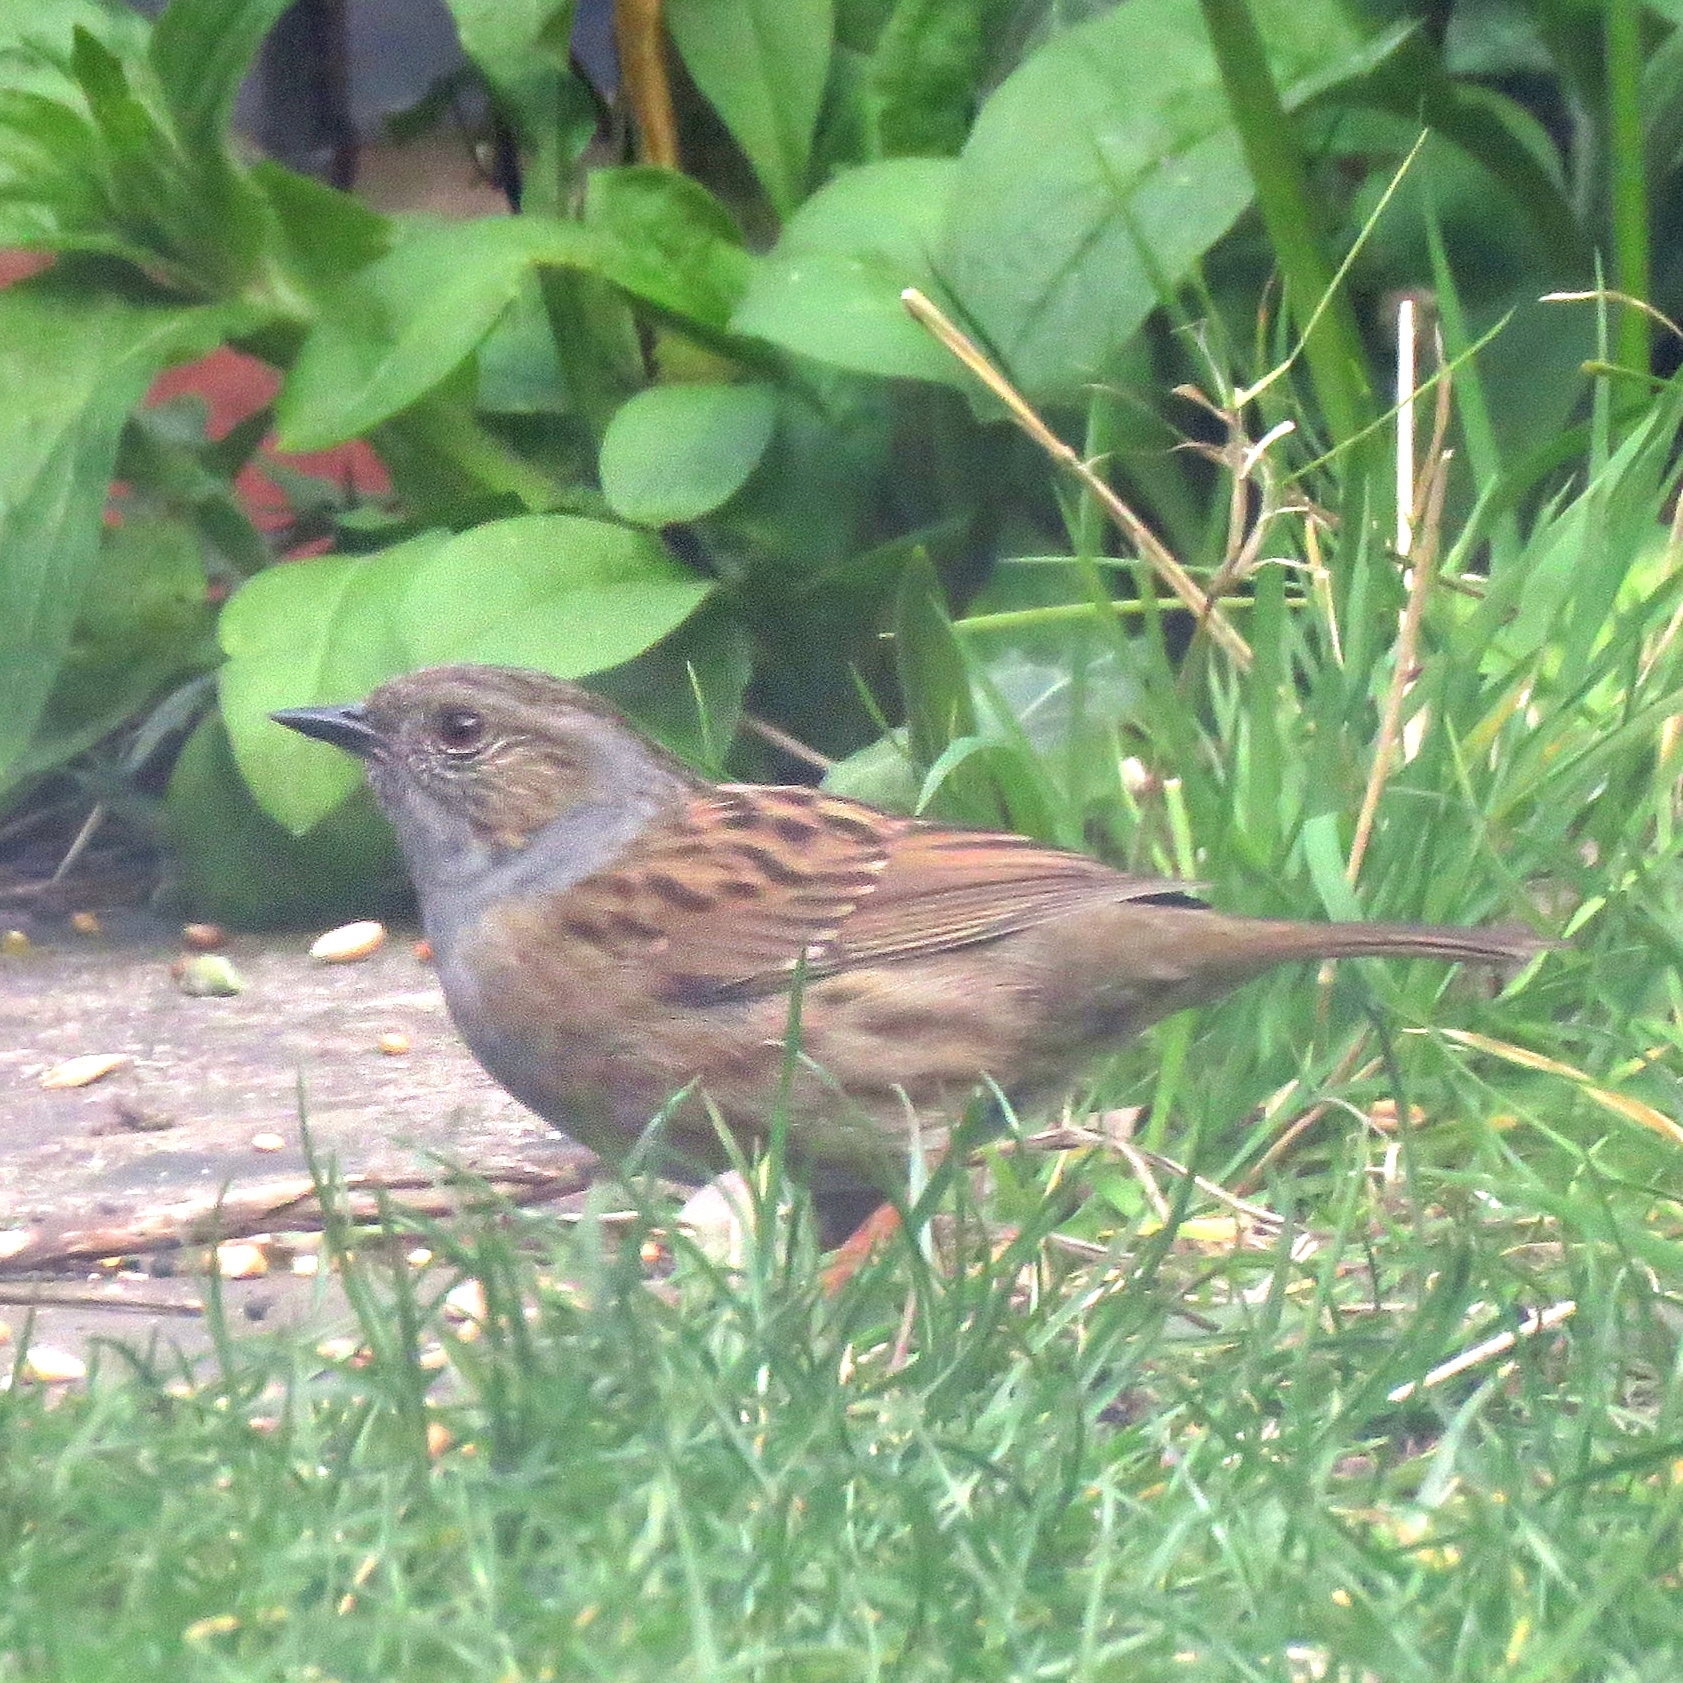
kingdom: Animalia
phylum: Chordata
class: Aves
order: Passeriformes
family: Prunellidae
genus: Prunella
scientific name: Prunella modularis
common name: Dunnock
